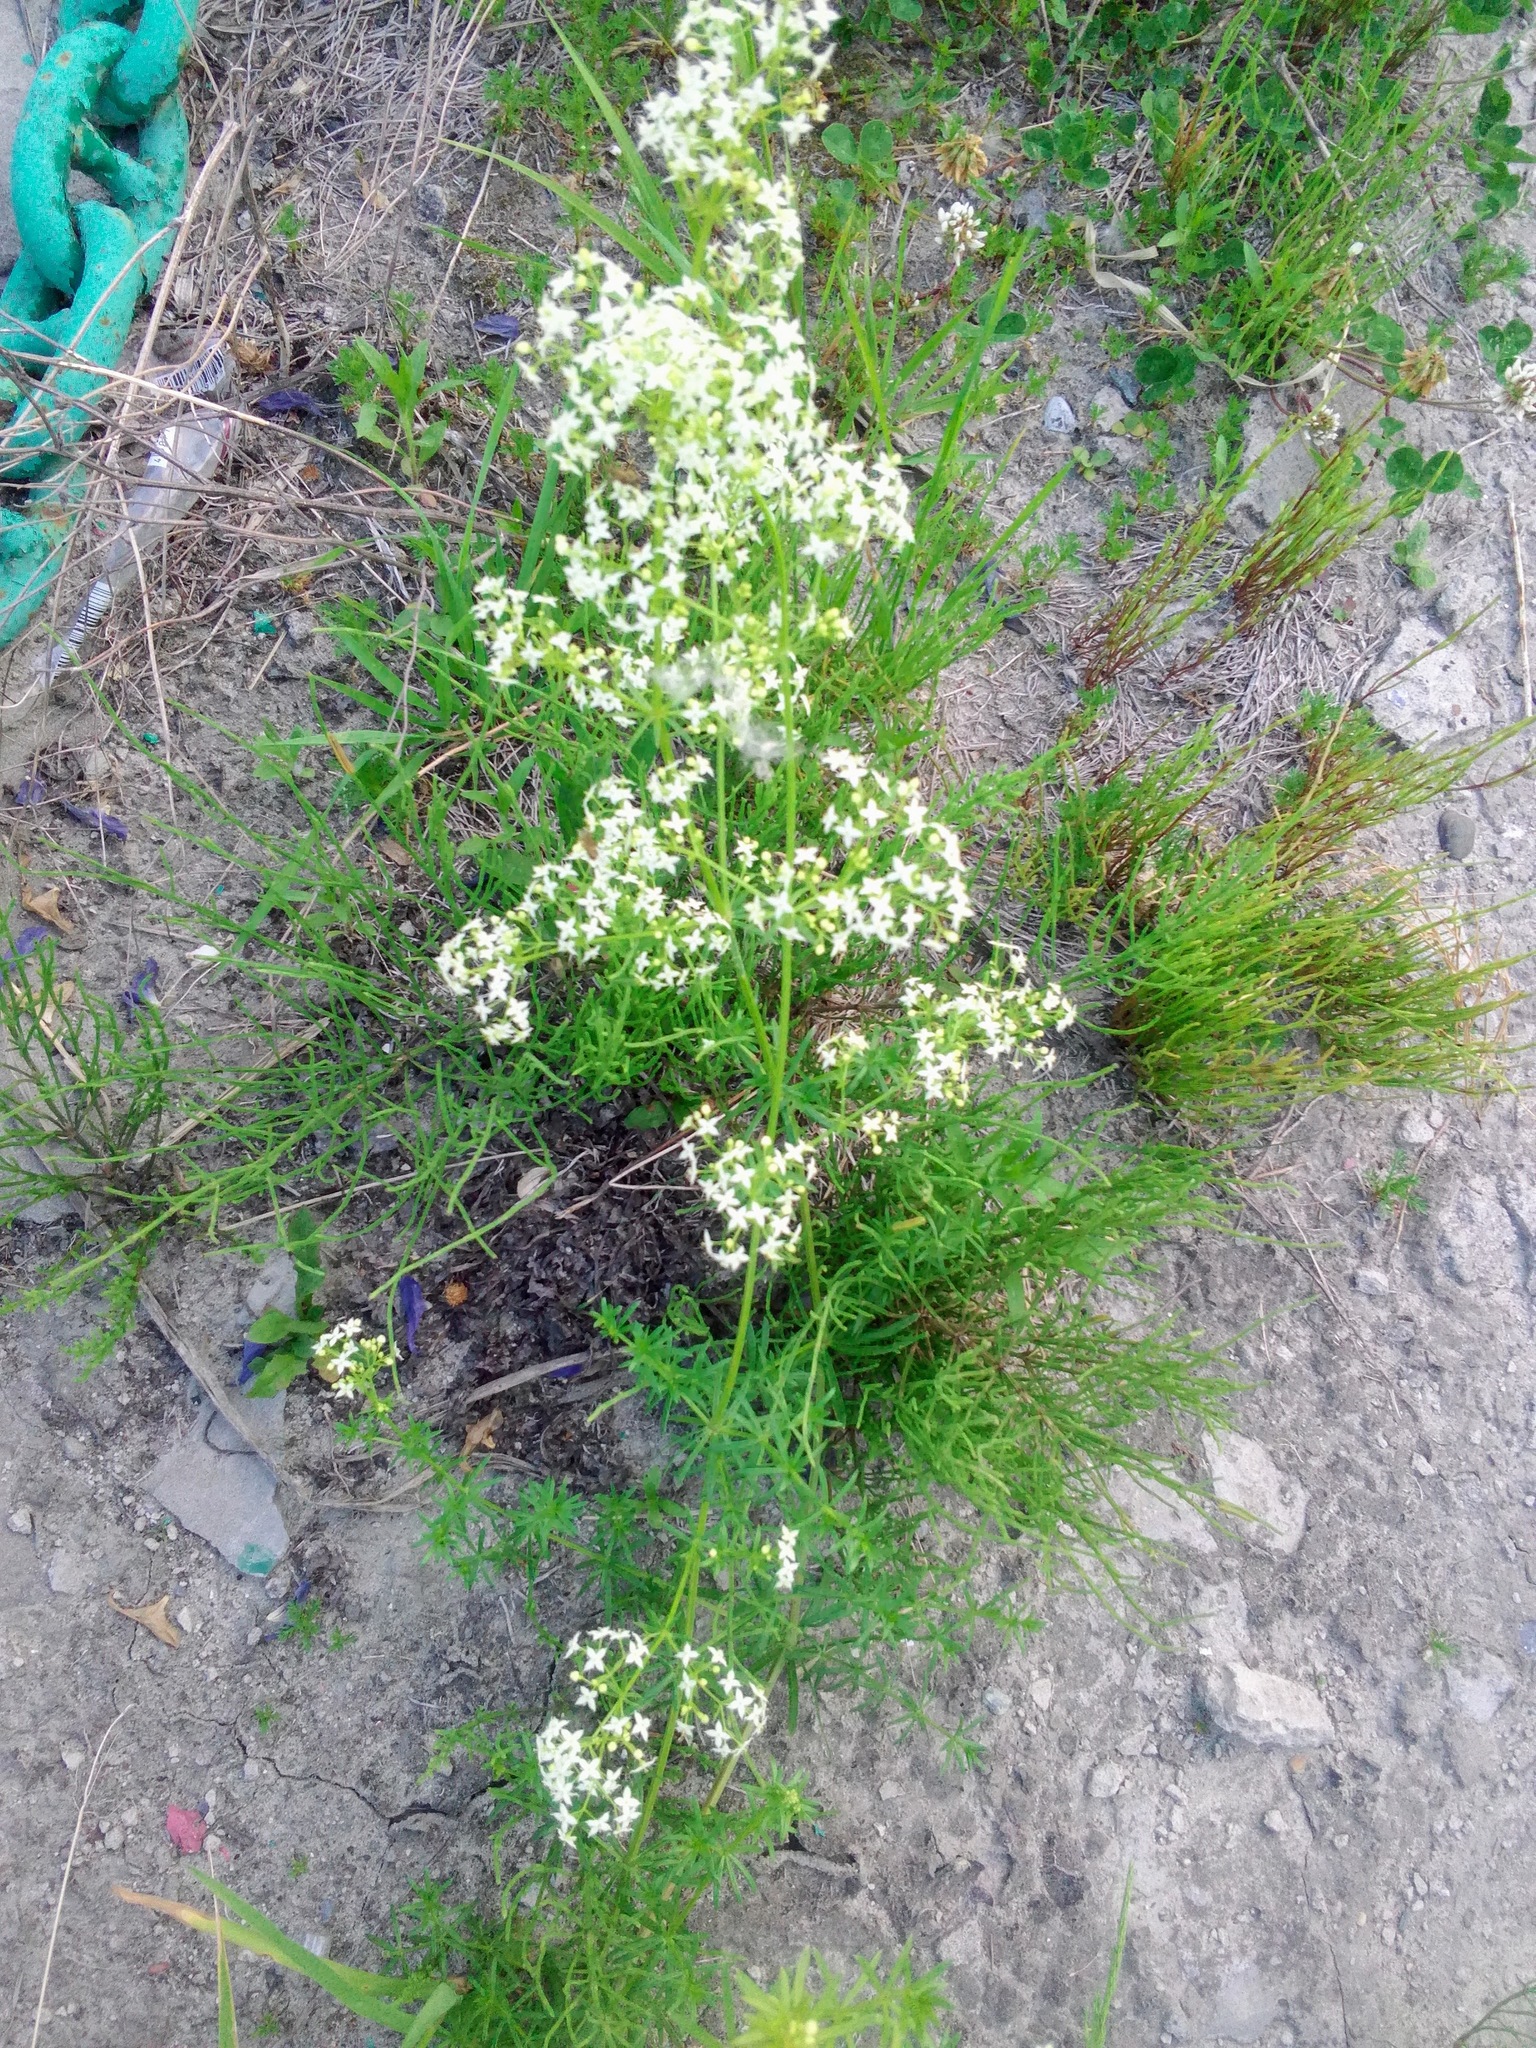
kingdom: Plantae
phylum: Tracheophyta
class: Magnoliopsida
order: Gentianales
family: Rubiaceae
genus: Galium
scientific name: Galium mollugo
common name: Hedge bedstraw
